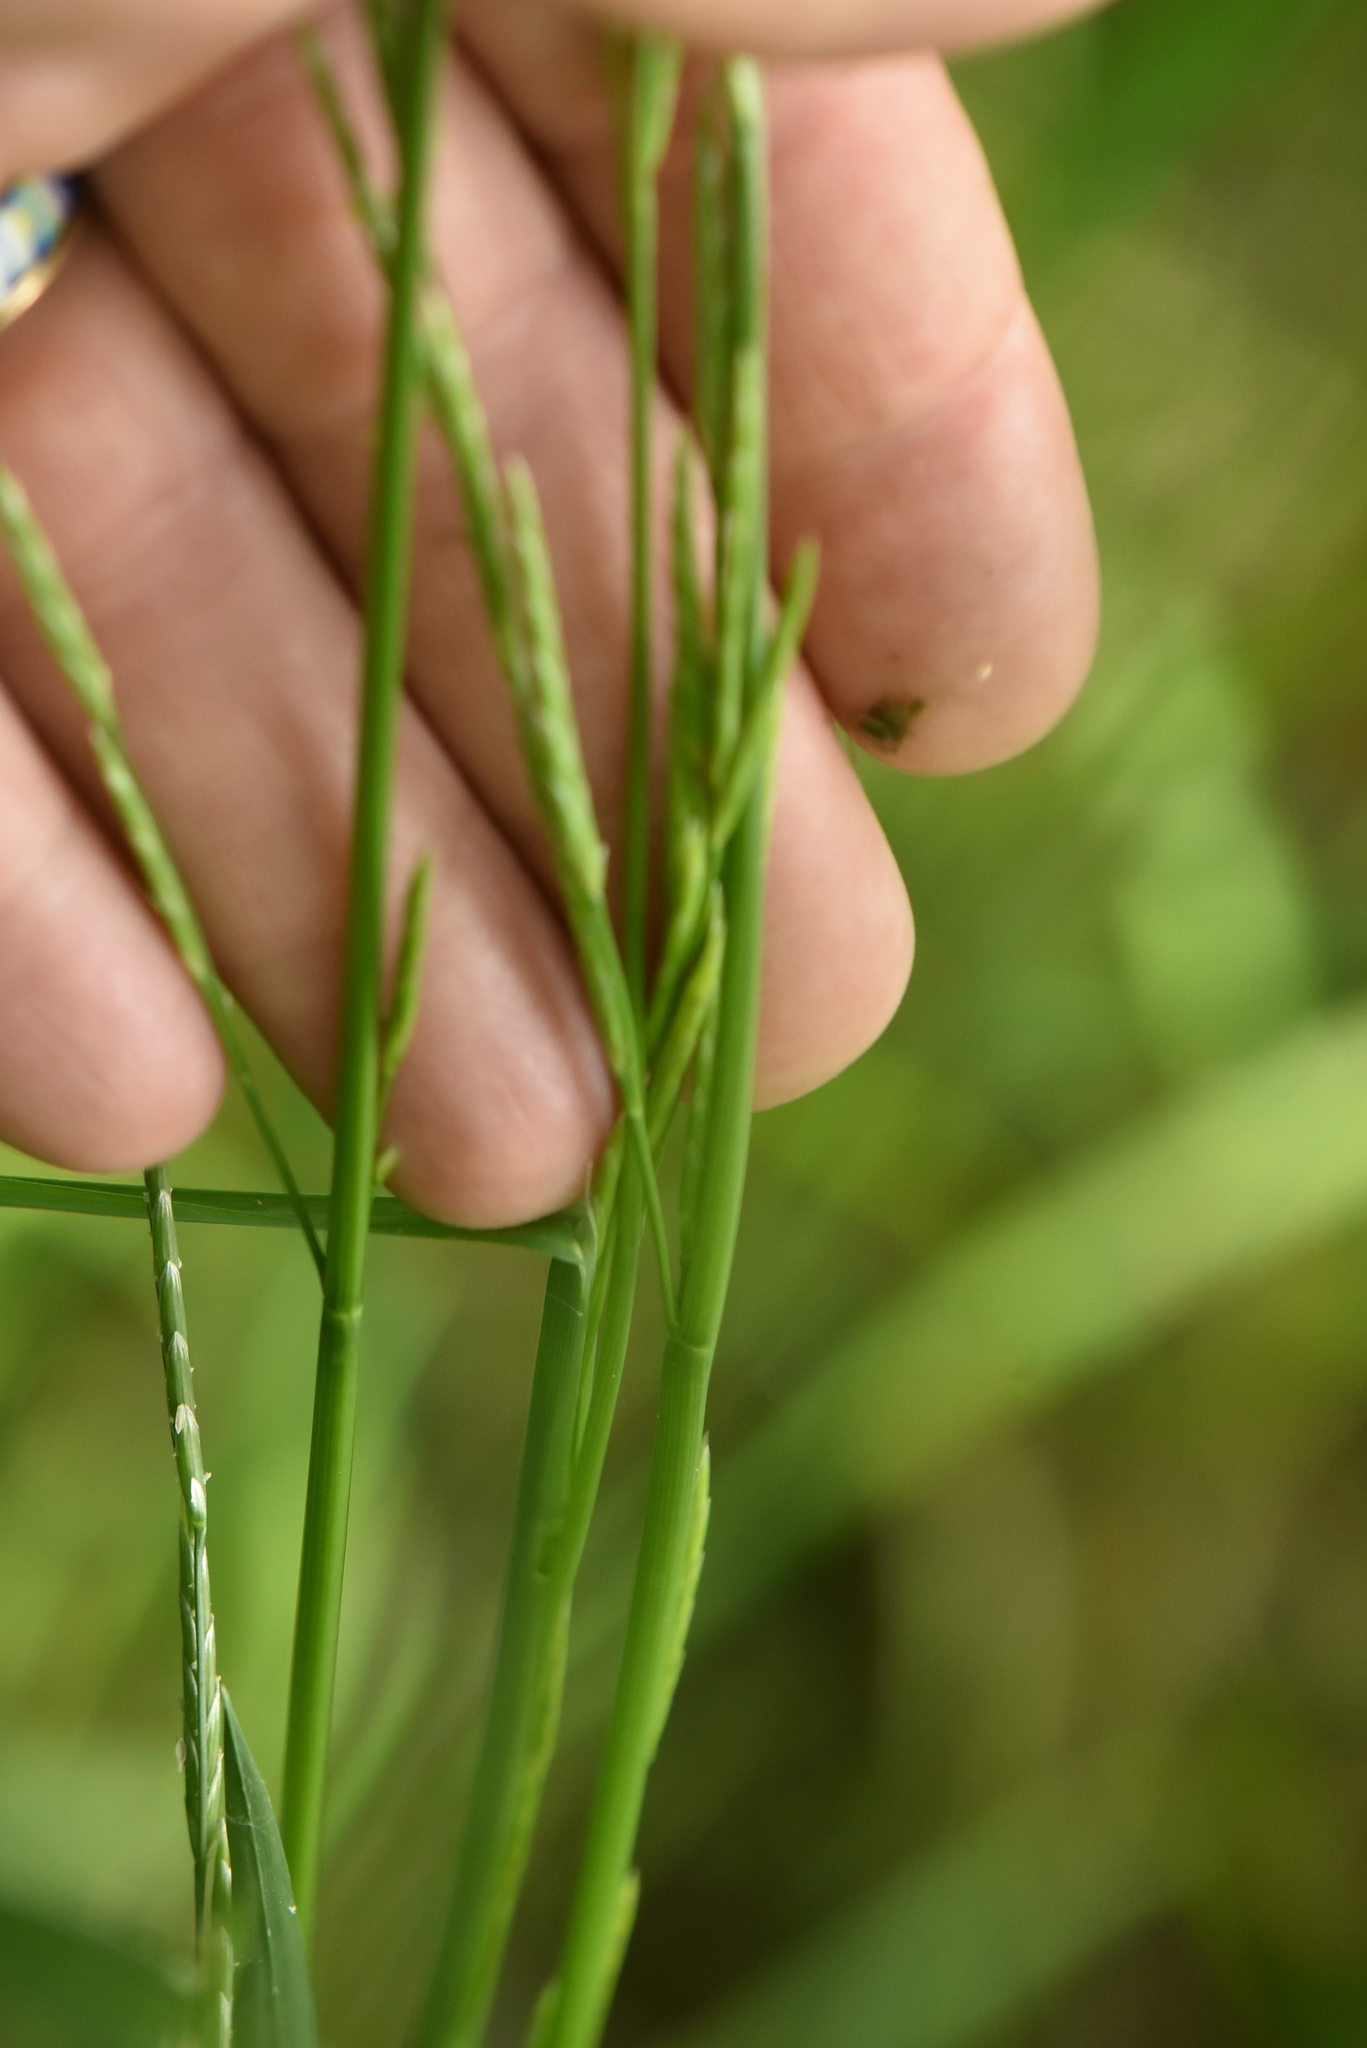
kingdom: Plantae
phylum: Tracheophyta
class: Liliopsida
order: Poales
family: Poaceae
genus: Glyceria
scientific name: Glyceria notata
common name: Plicate sweet-grass
